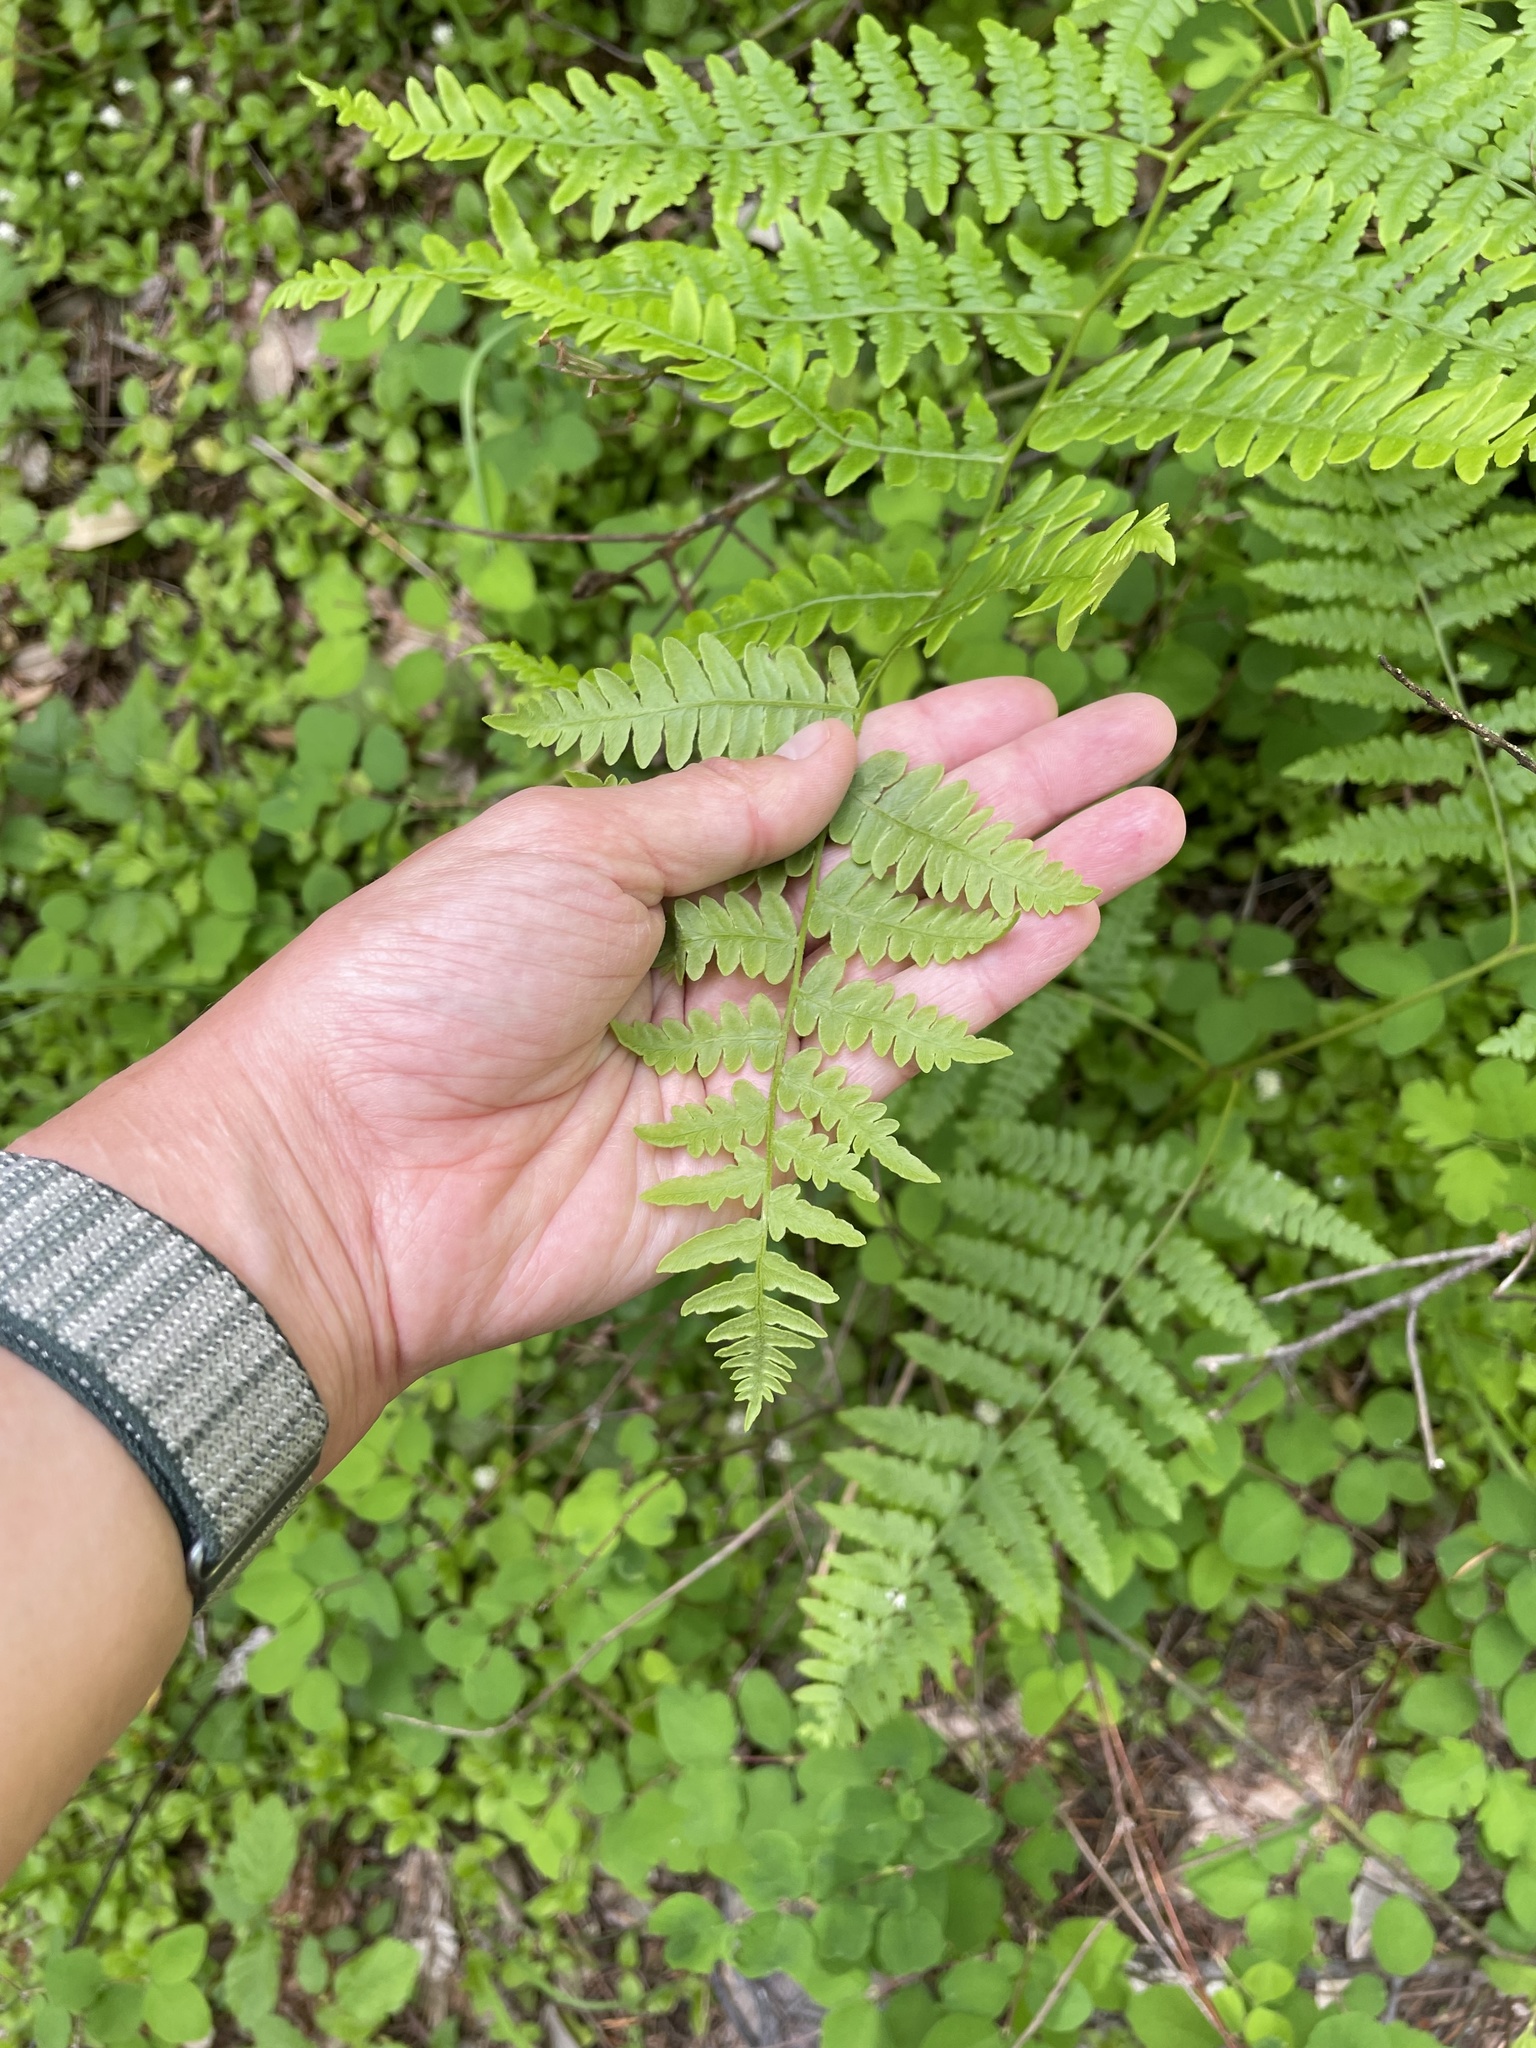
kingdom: Plantae
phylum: Tracheophyta
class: Polypodiopsida
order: Polypodiales
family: Dennstaedtiaceae
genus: Pteridium
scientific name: Pteridium aquilinum
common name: Bracken
